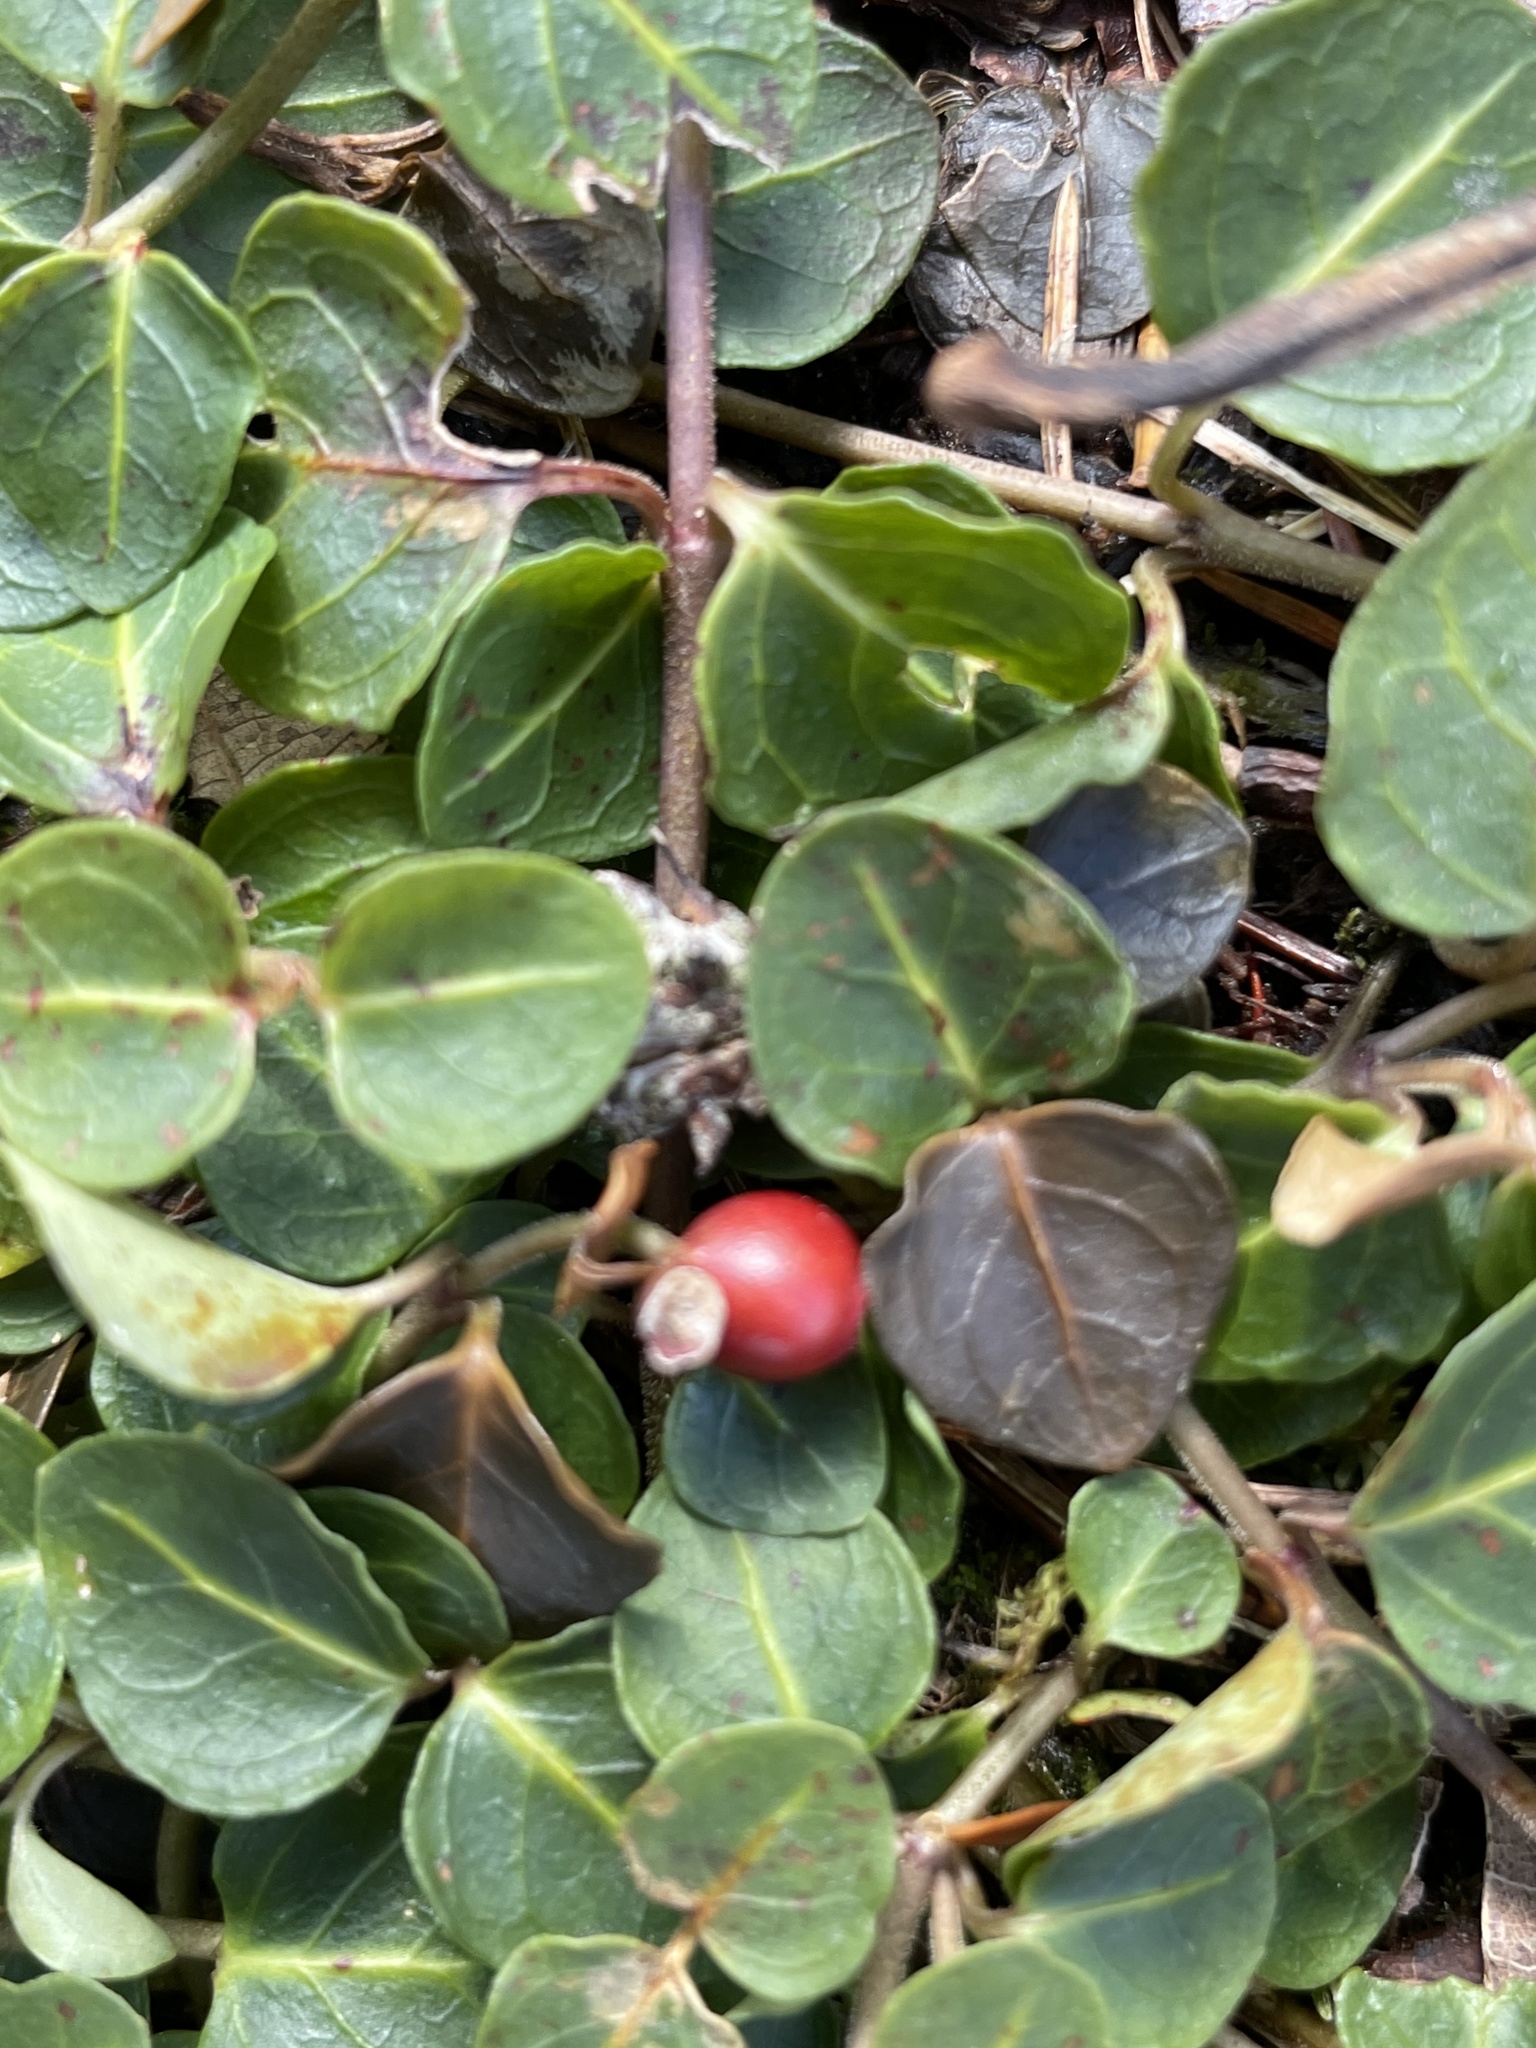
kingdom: Plantae
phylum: Tracheophyta
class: Magnoliopsida
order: Gentianales
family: Rubiaceae
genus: Mitchella
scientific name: Mitchella repens
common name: Partridge-berry
